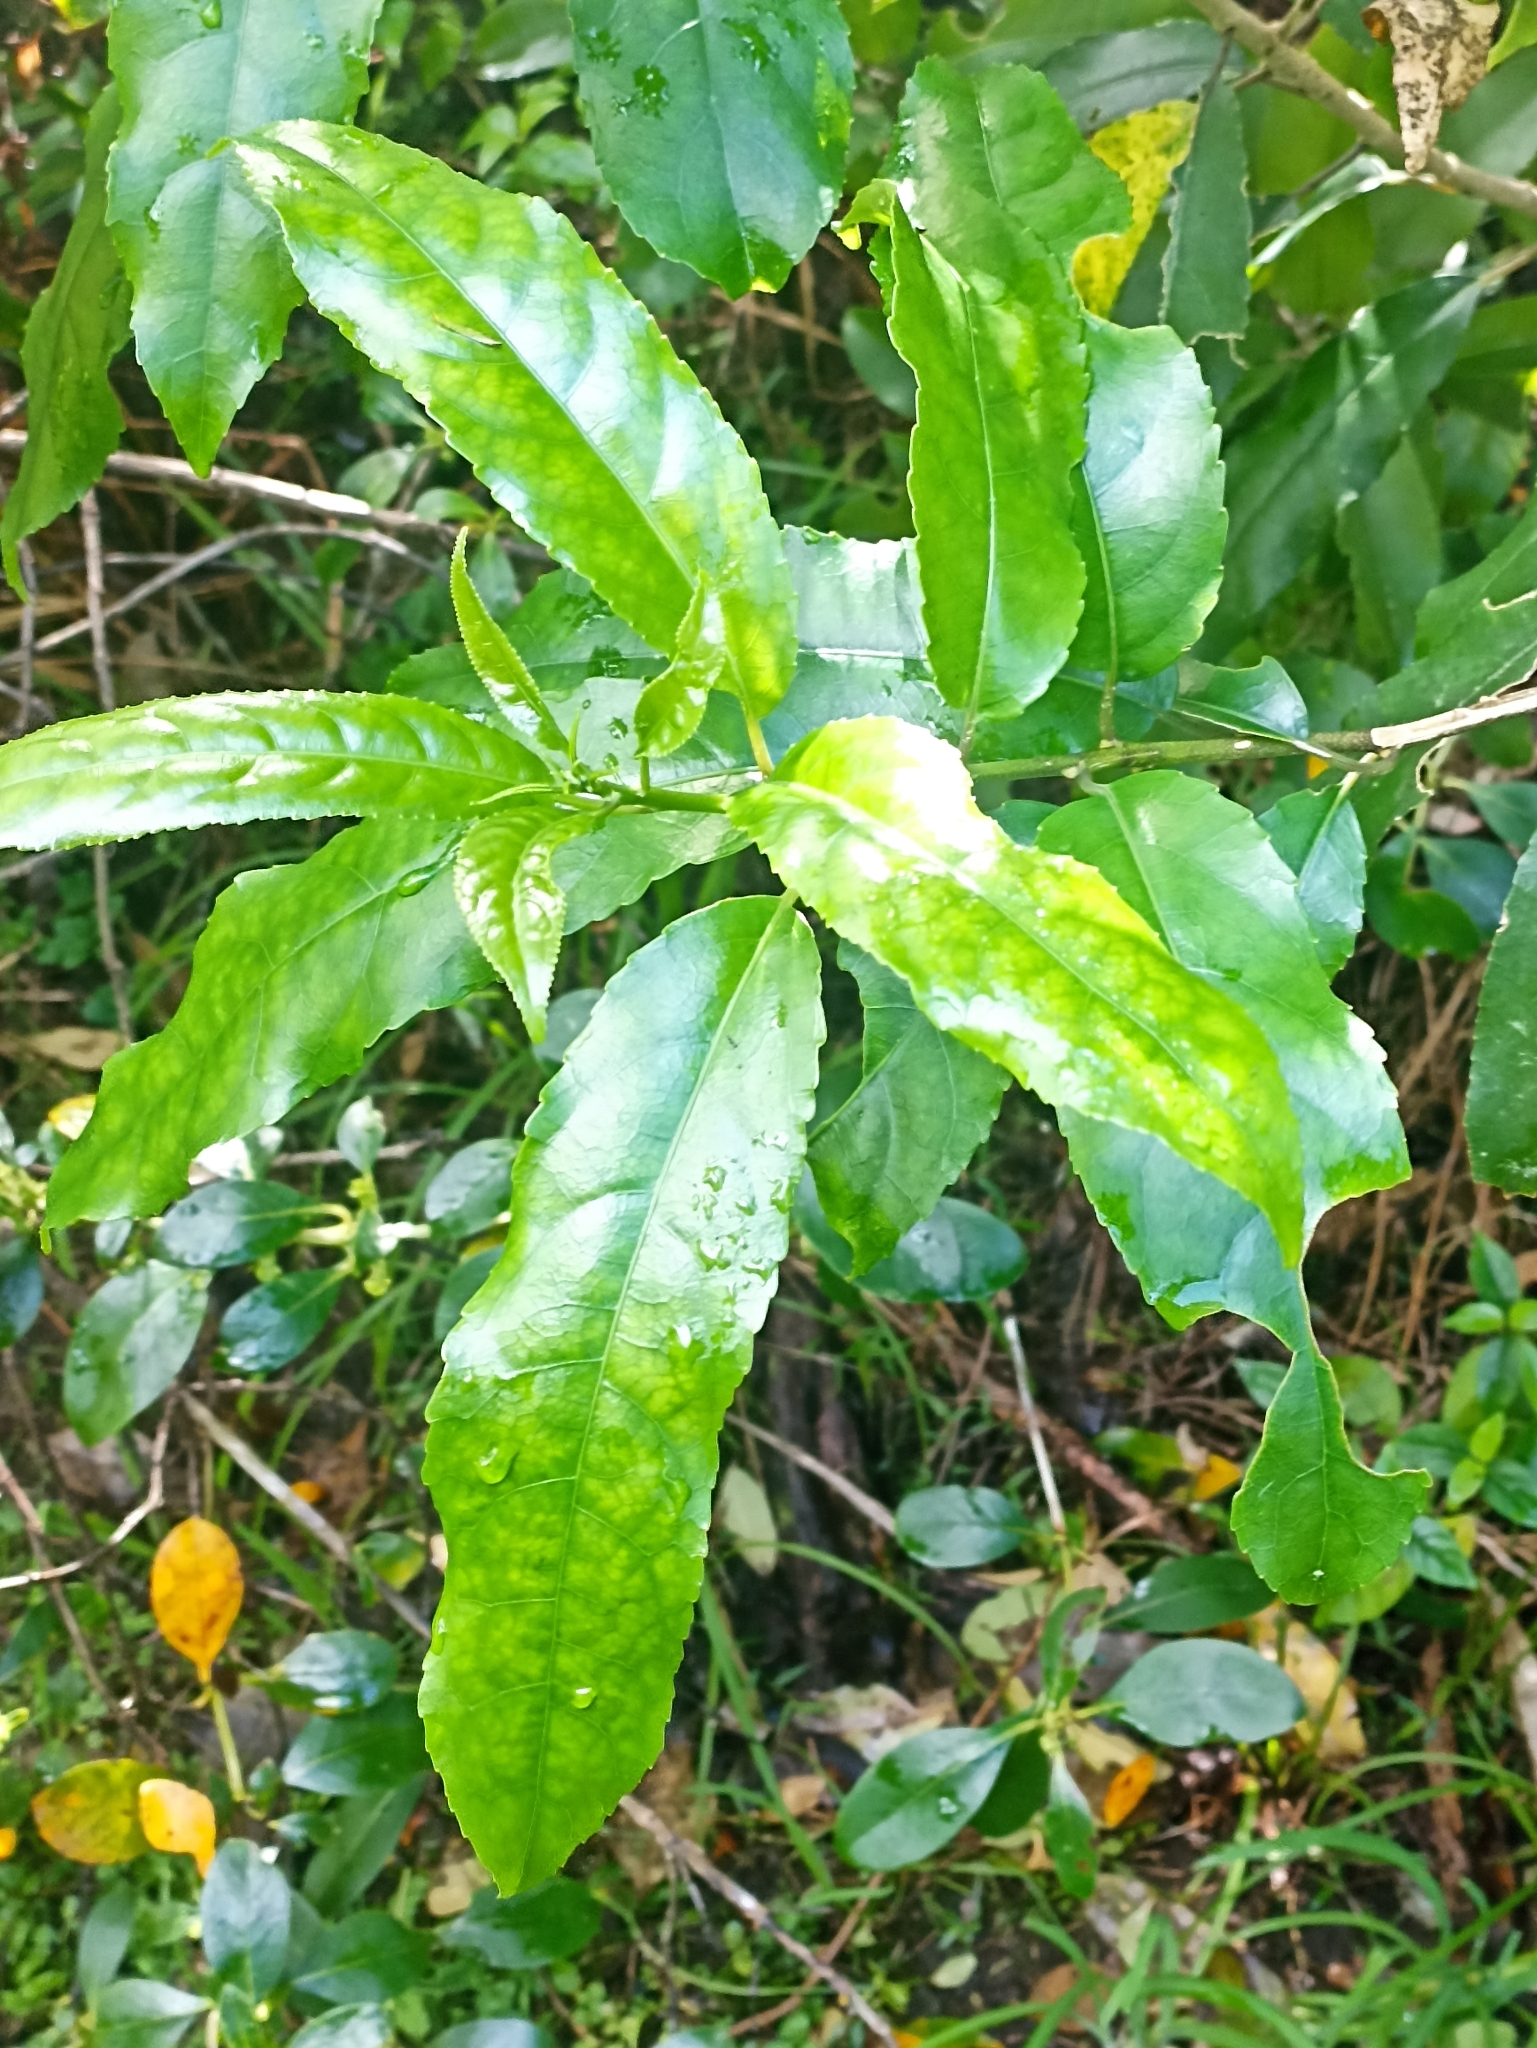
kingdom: Plantae
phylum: Tracheophyta
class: Magnoliopsida
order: Malpighiales
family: Violaceae
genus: Melicytus
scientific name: Melicytus ramiflorus
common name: Mahoe
